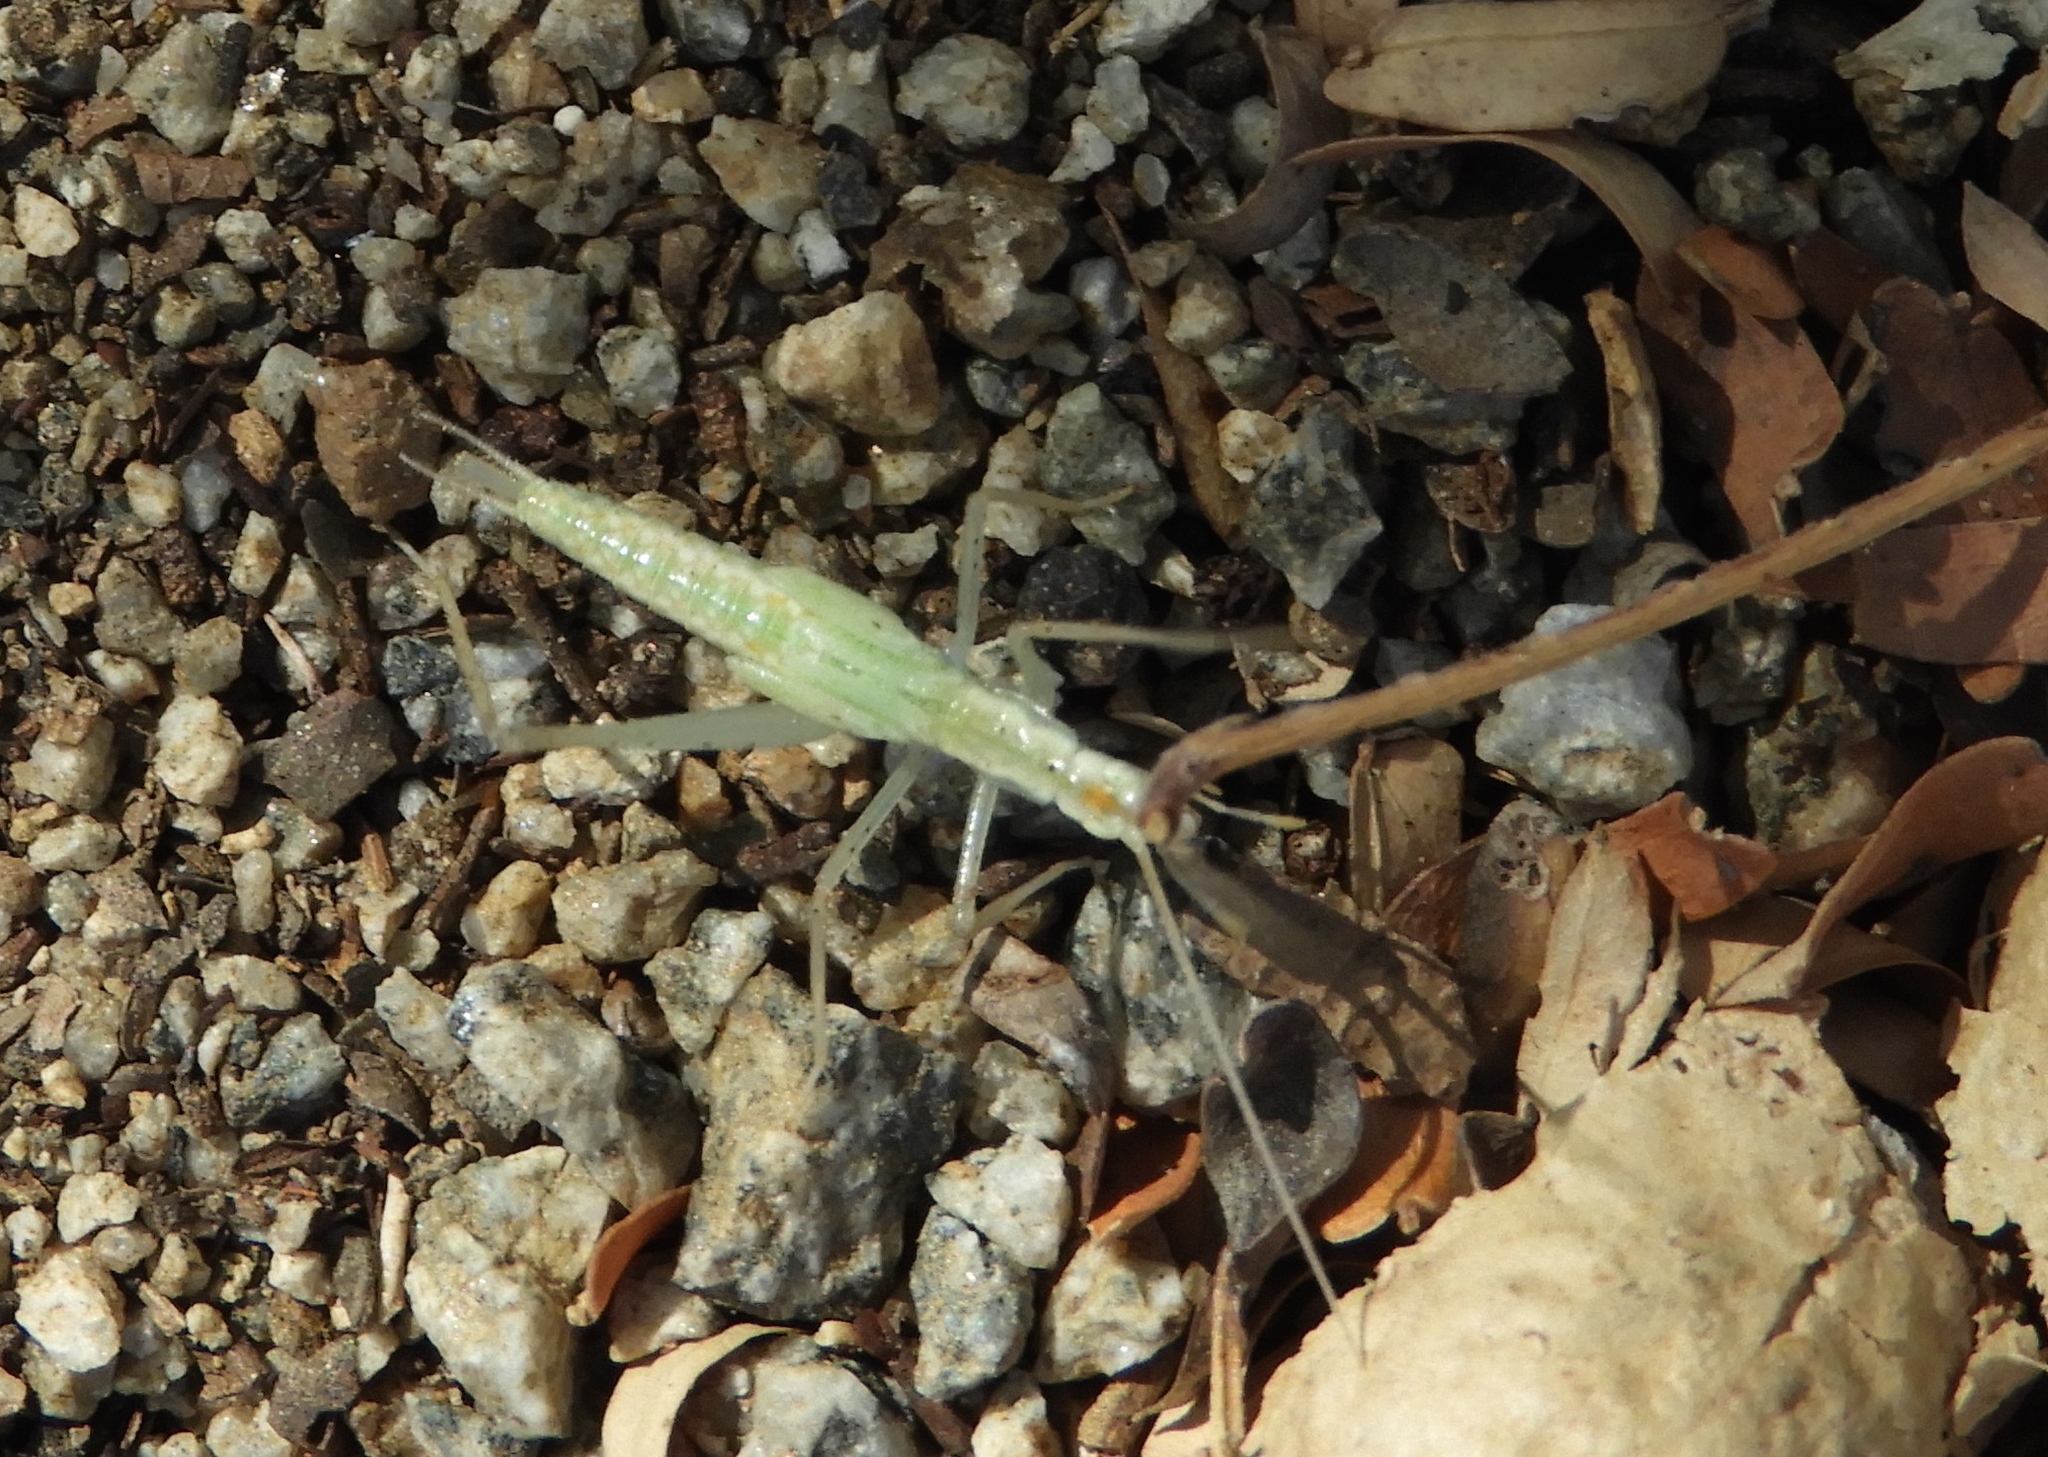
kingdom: Animalia
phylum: Arthropoda
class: Insecta
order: Orthoptera
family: Gryllidae
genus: Oecanthus
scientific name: Oecanthus
